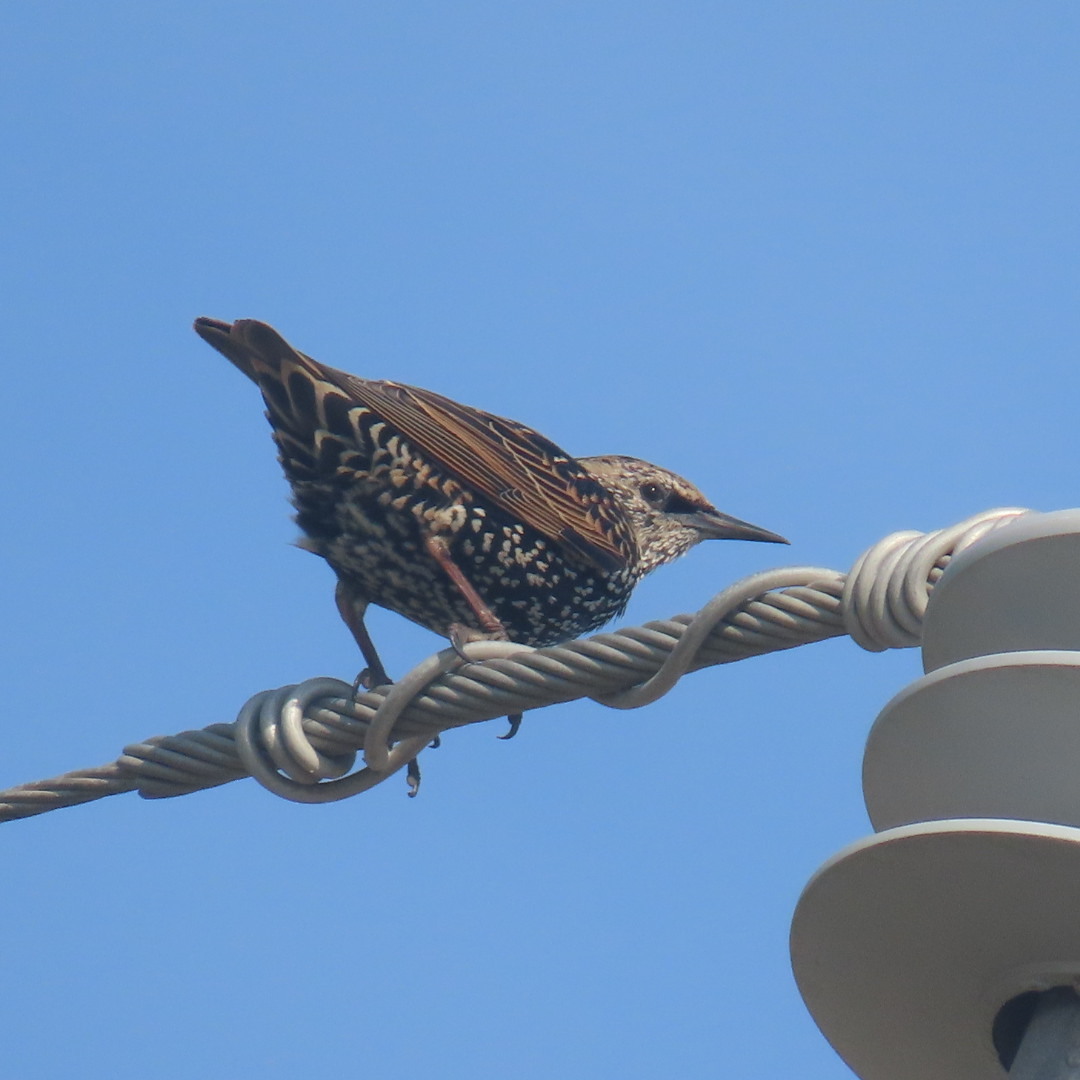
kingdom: Animalia
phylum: Chordata
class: Aves
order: Passeriformes
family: Sturnidae
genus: Sturnus
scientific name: Sturnus vulgaris
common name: Common starling
